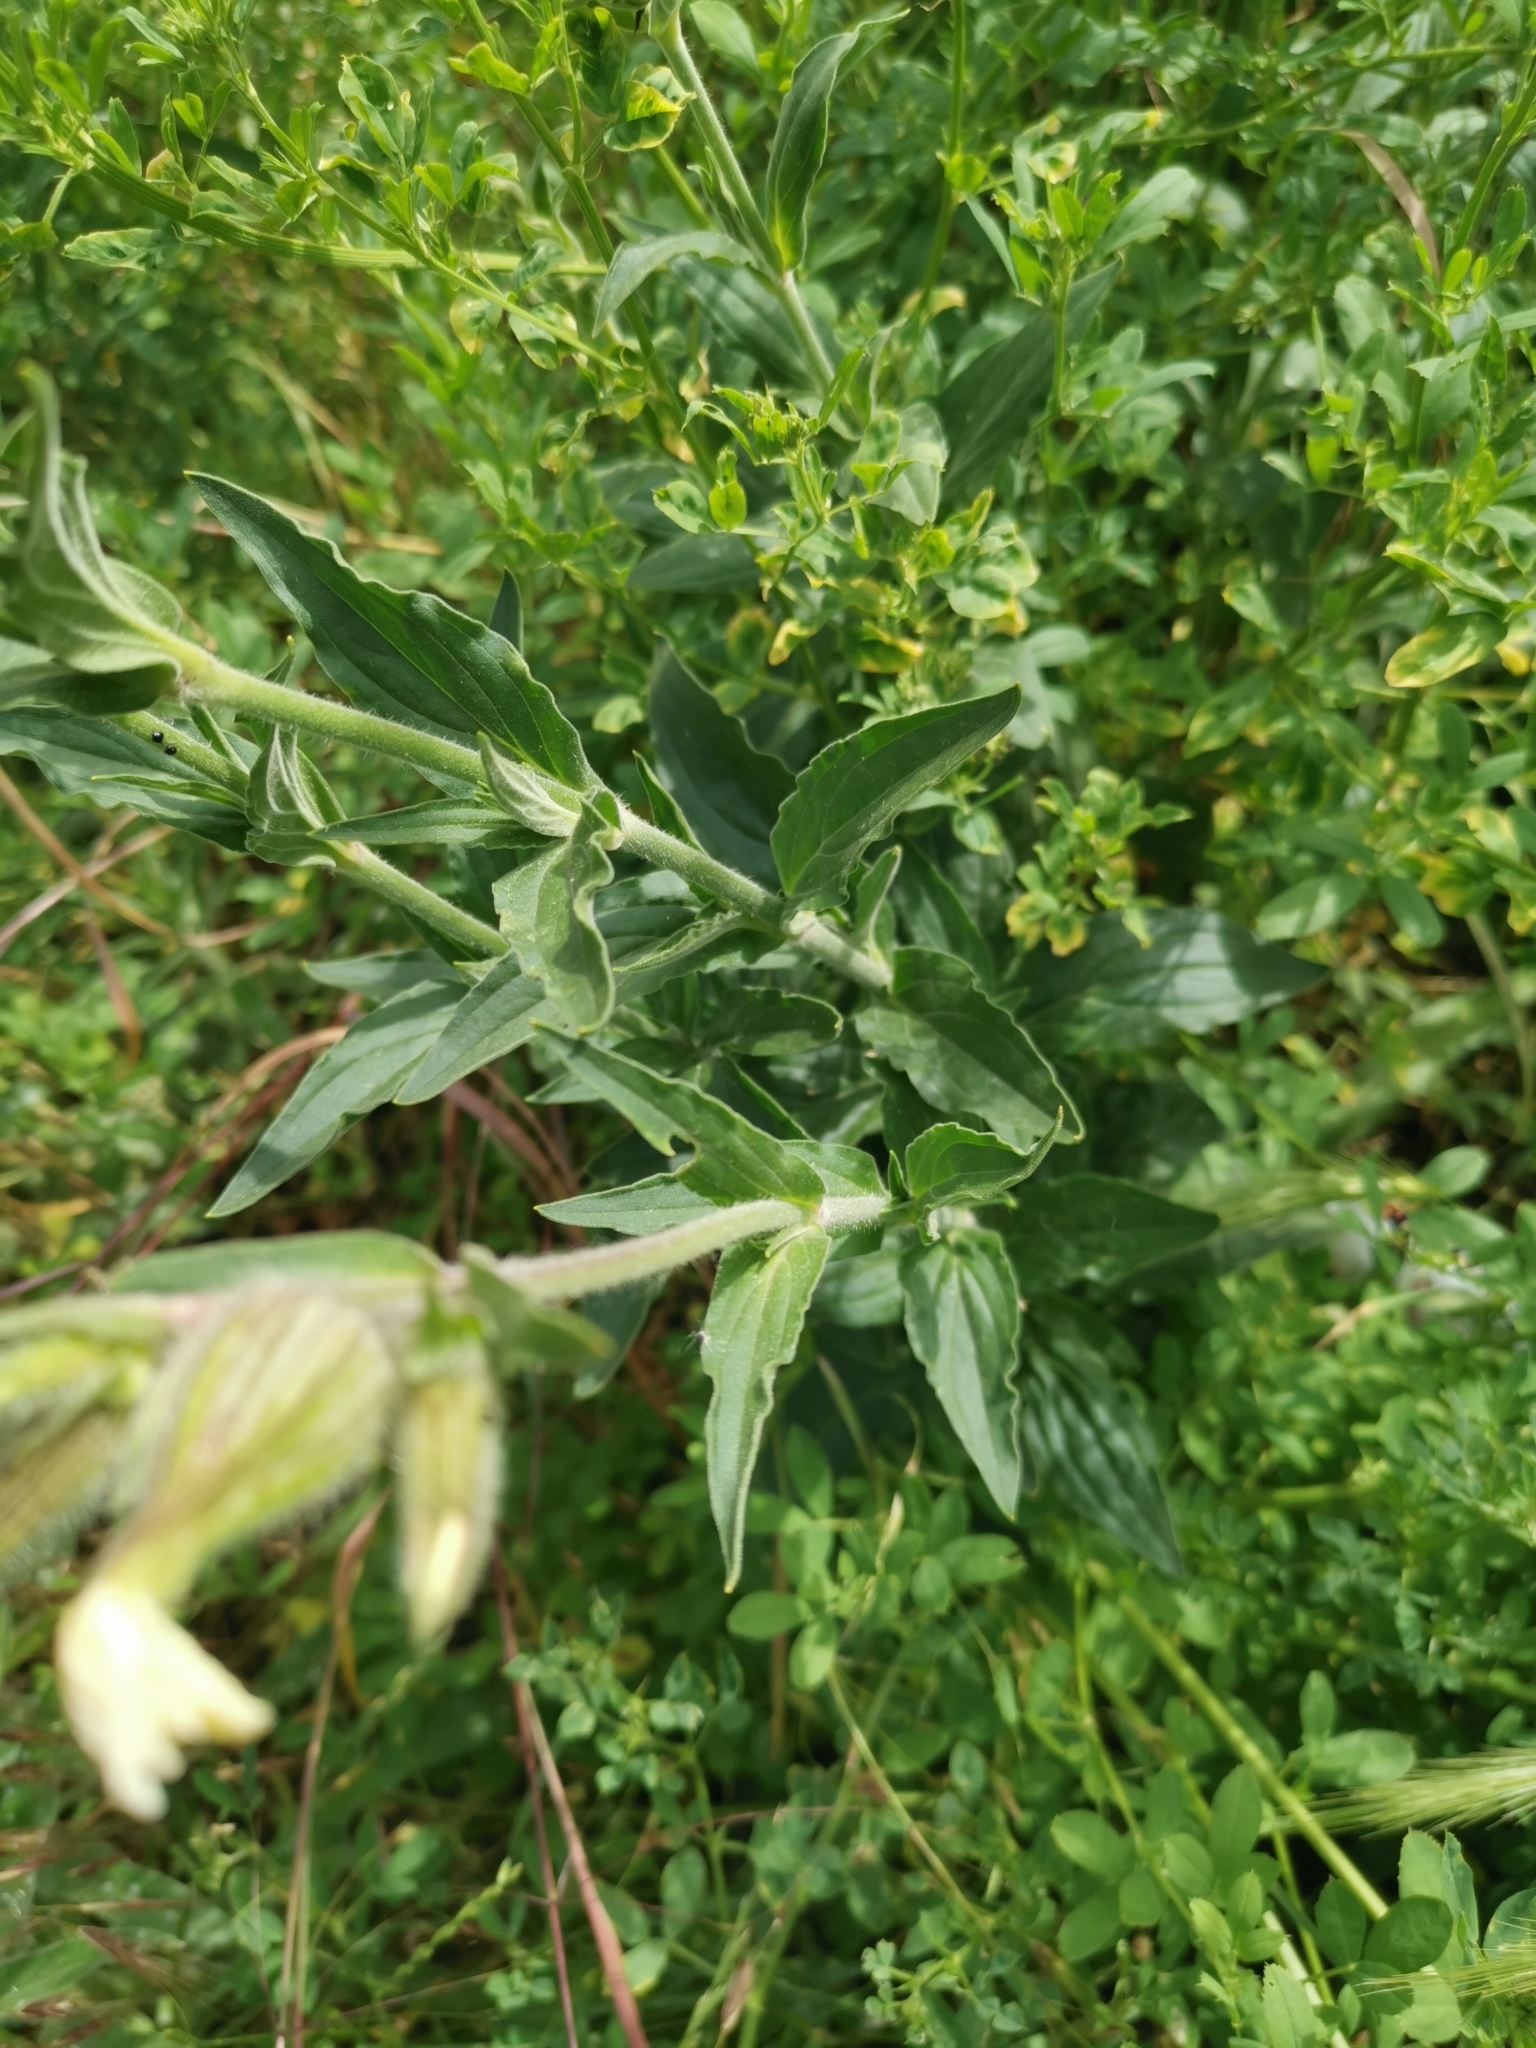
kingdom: Plantae
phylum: Tracheophyta
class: Magnoliopsida
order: Caryophyllales
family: Caryophyllaceae
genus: Silene
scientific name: Silene latifolia
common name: White campion
